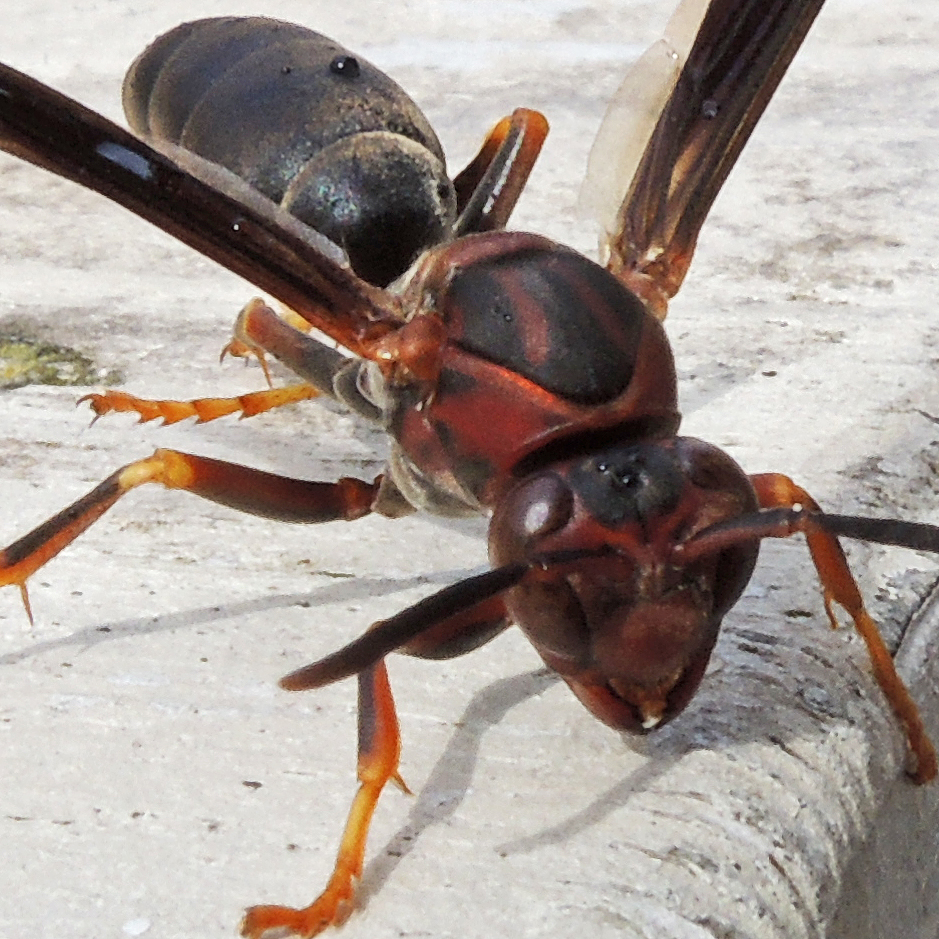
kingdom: Animalia
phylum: Arthropoda
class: Insecta
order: Hymenoptera
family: Eumenidae
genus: Polistes
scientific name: Polistes metricus
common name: Metric paper wasp
